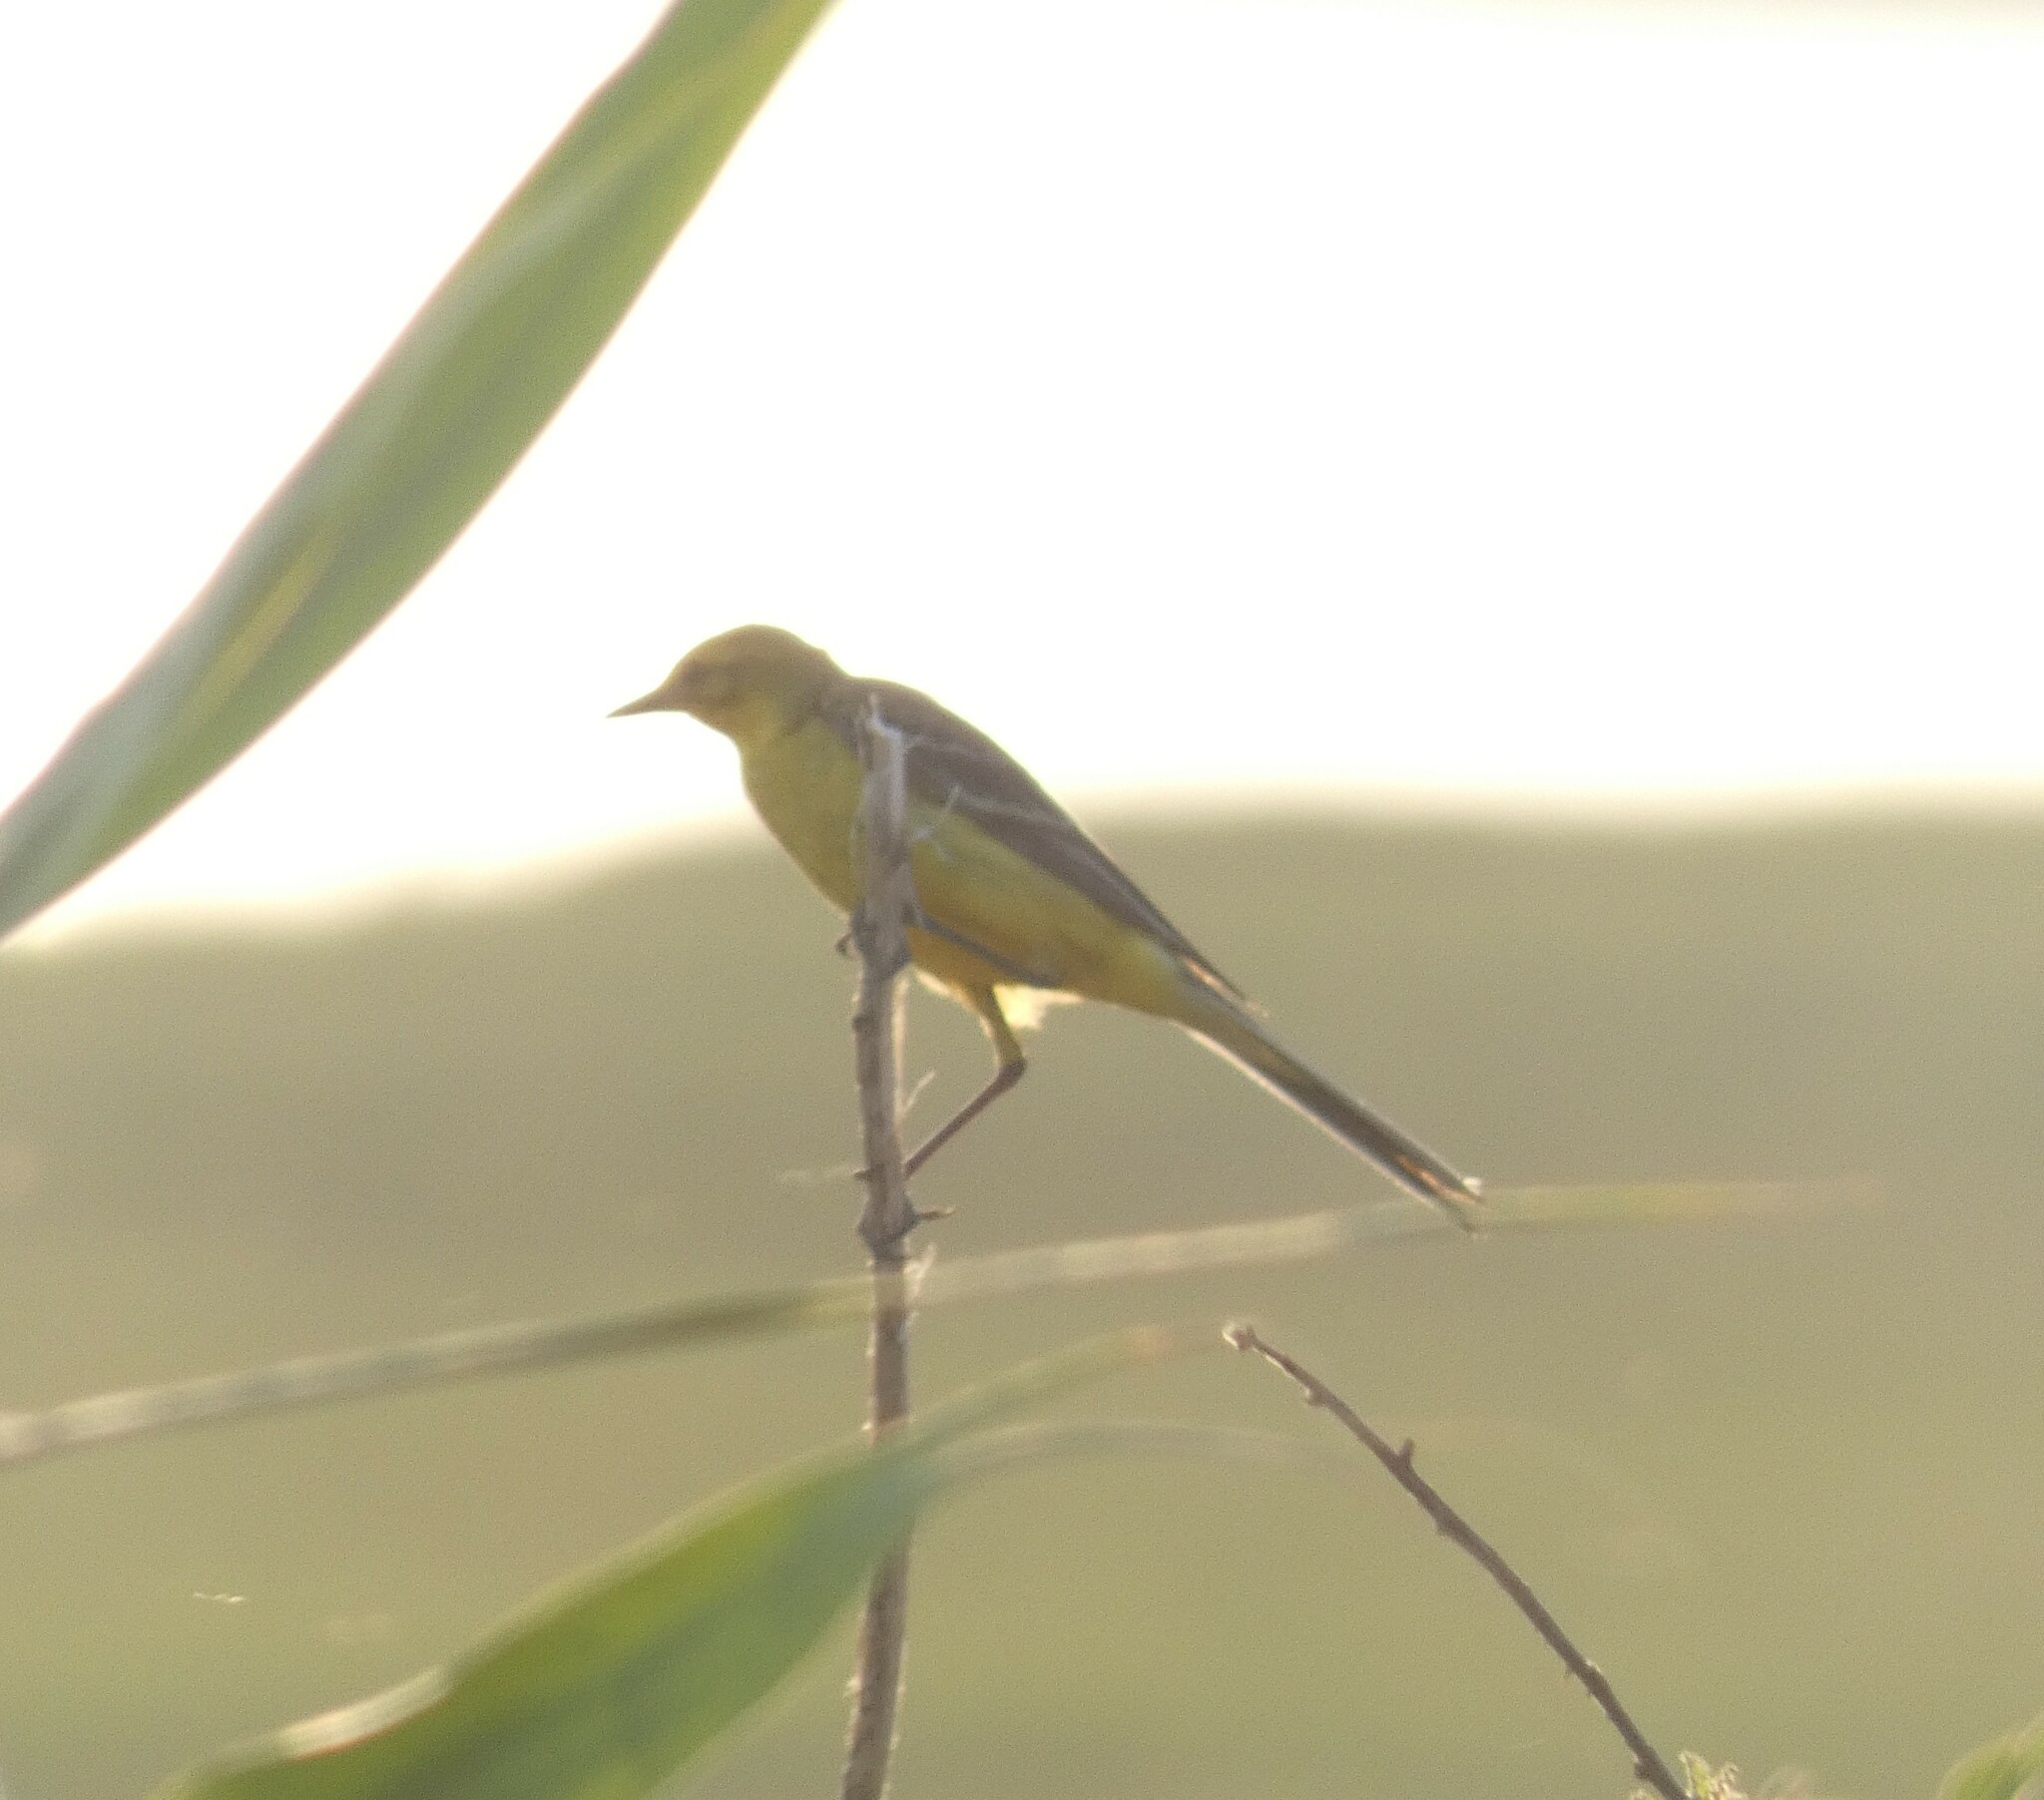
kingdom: Animalia
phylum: Chordata
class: Aves
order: Passeriformes
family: Motacillidae
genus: Motacilla
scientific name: Motacilla flava
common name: Western yellow wagtail
